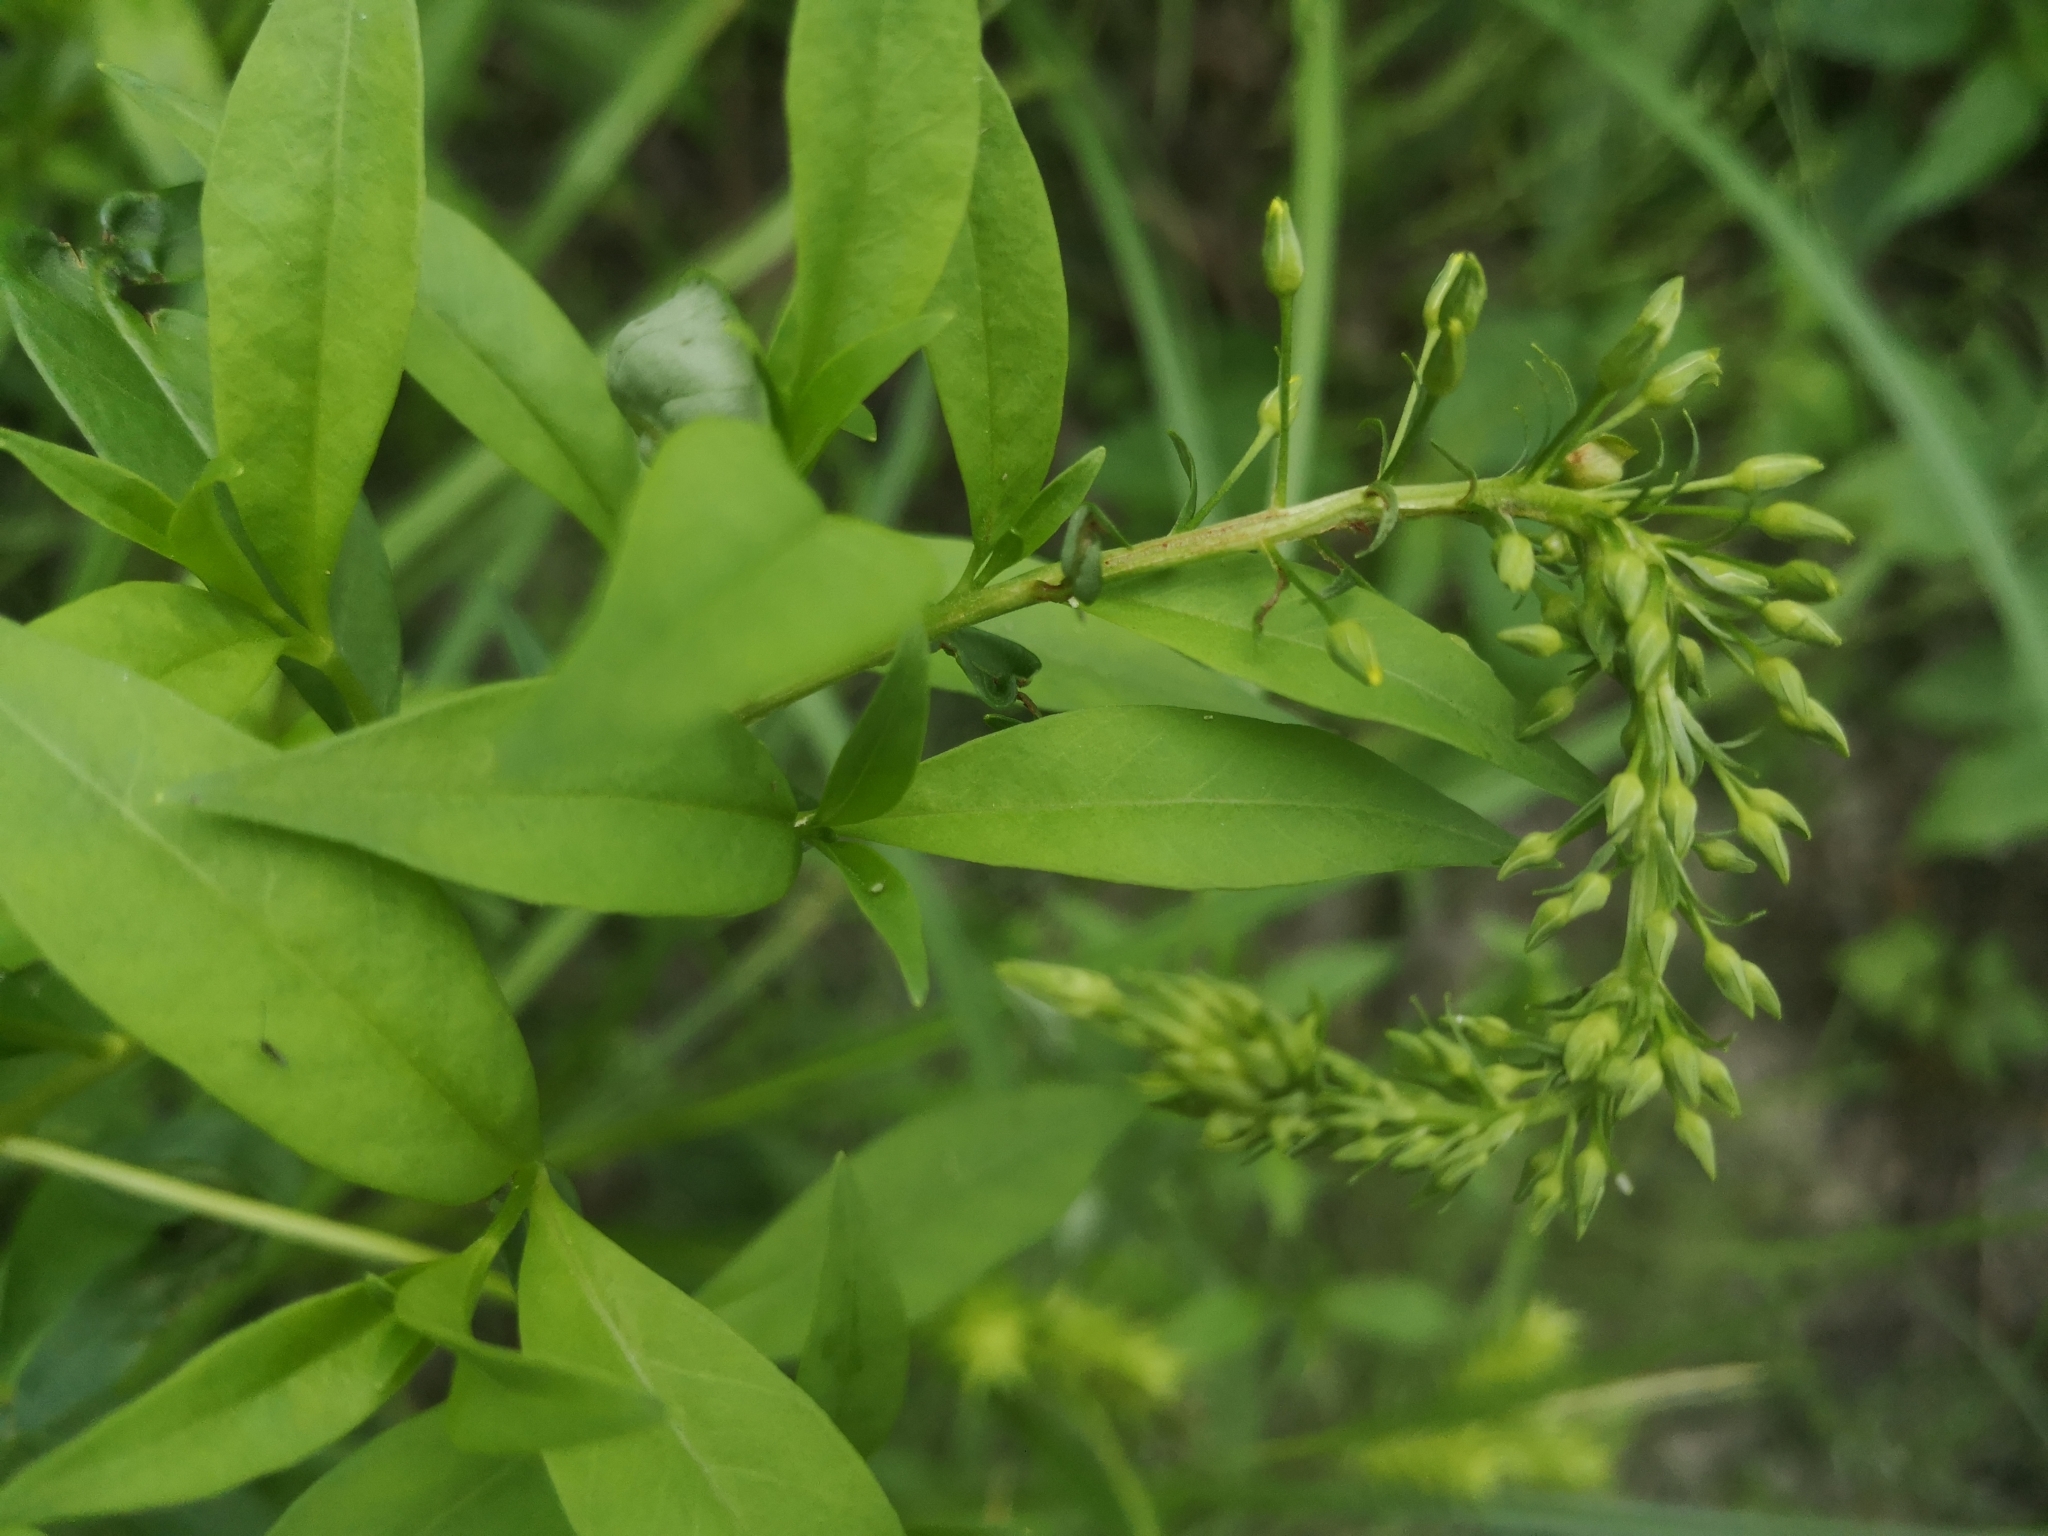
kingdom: Plantae
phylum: Tracheophyta
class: Magnoliopsida
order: Ericales
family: Primulaceae
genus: Lysimachia
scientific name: Lysimachia terrestris
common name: Lake loosestrife
